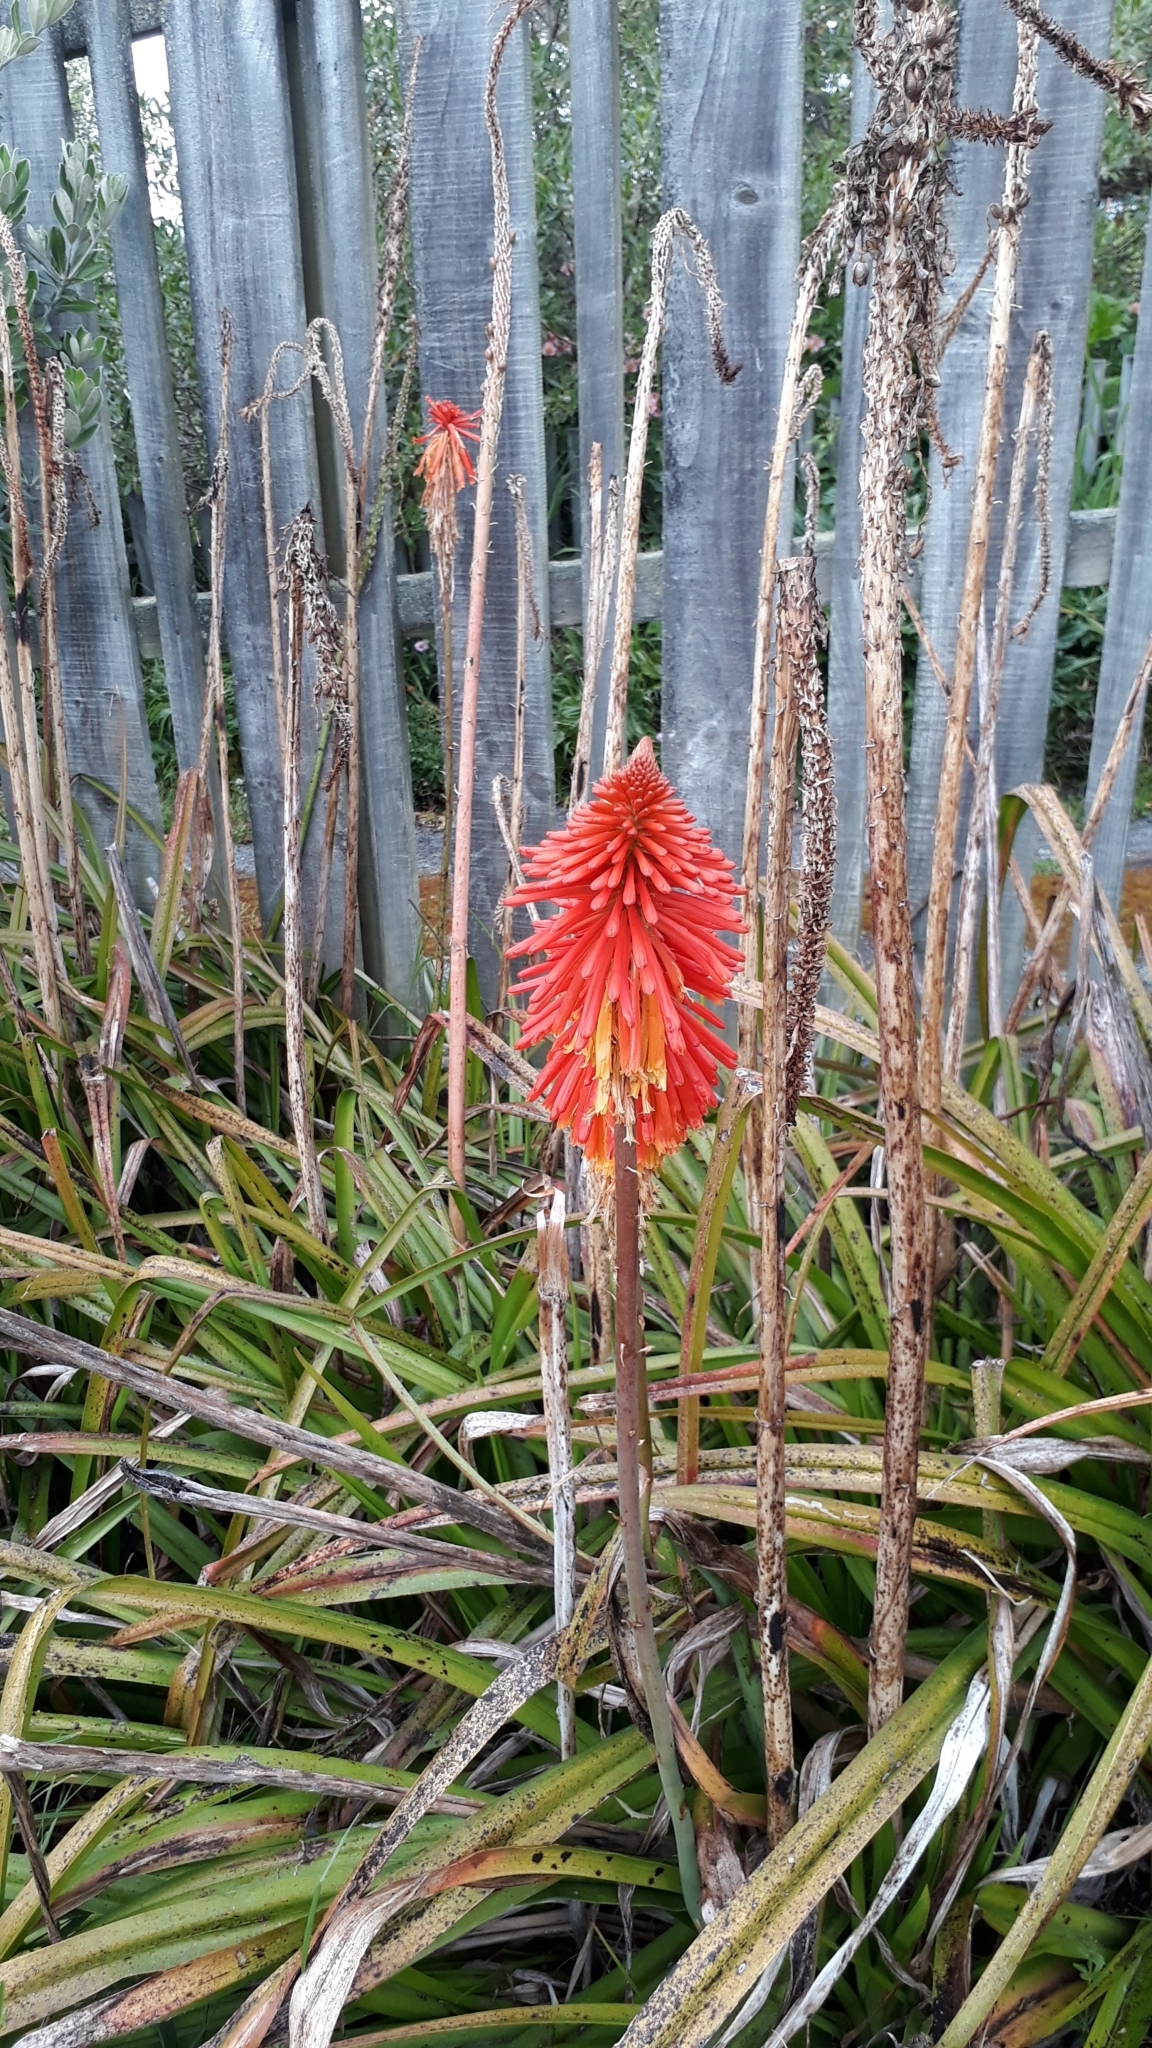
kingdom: Plantae
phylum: Tracheophyta
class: Liliopsida
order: Asparagales
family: Asphodelaceae
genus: Kniphofia
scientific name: Kniphofia uvaria
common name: Red-hot-poker
